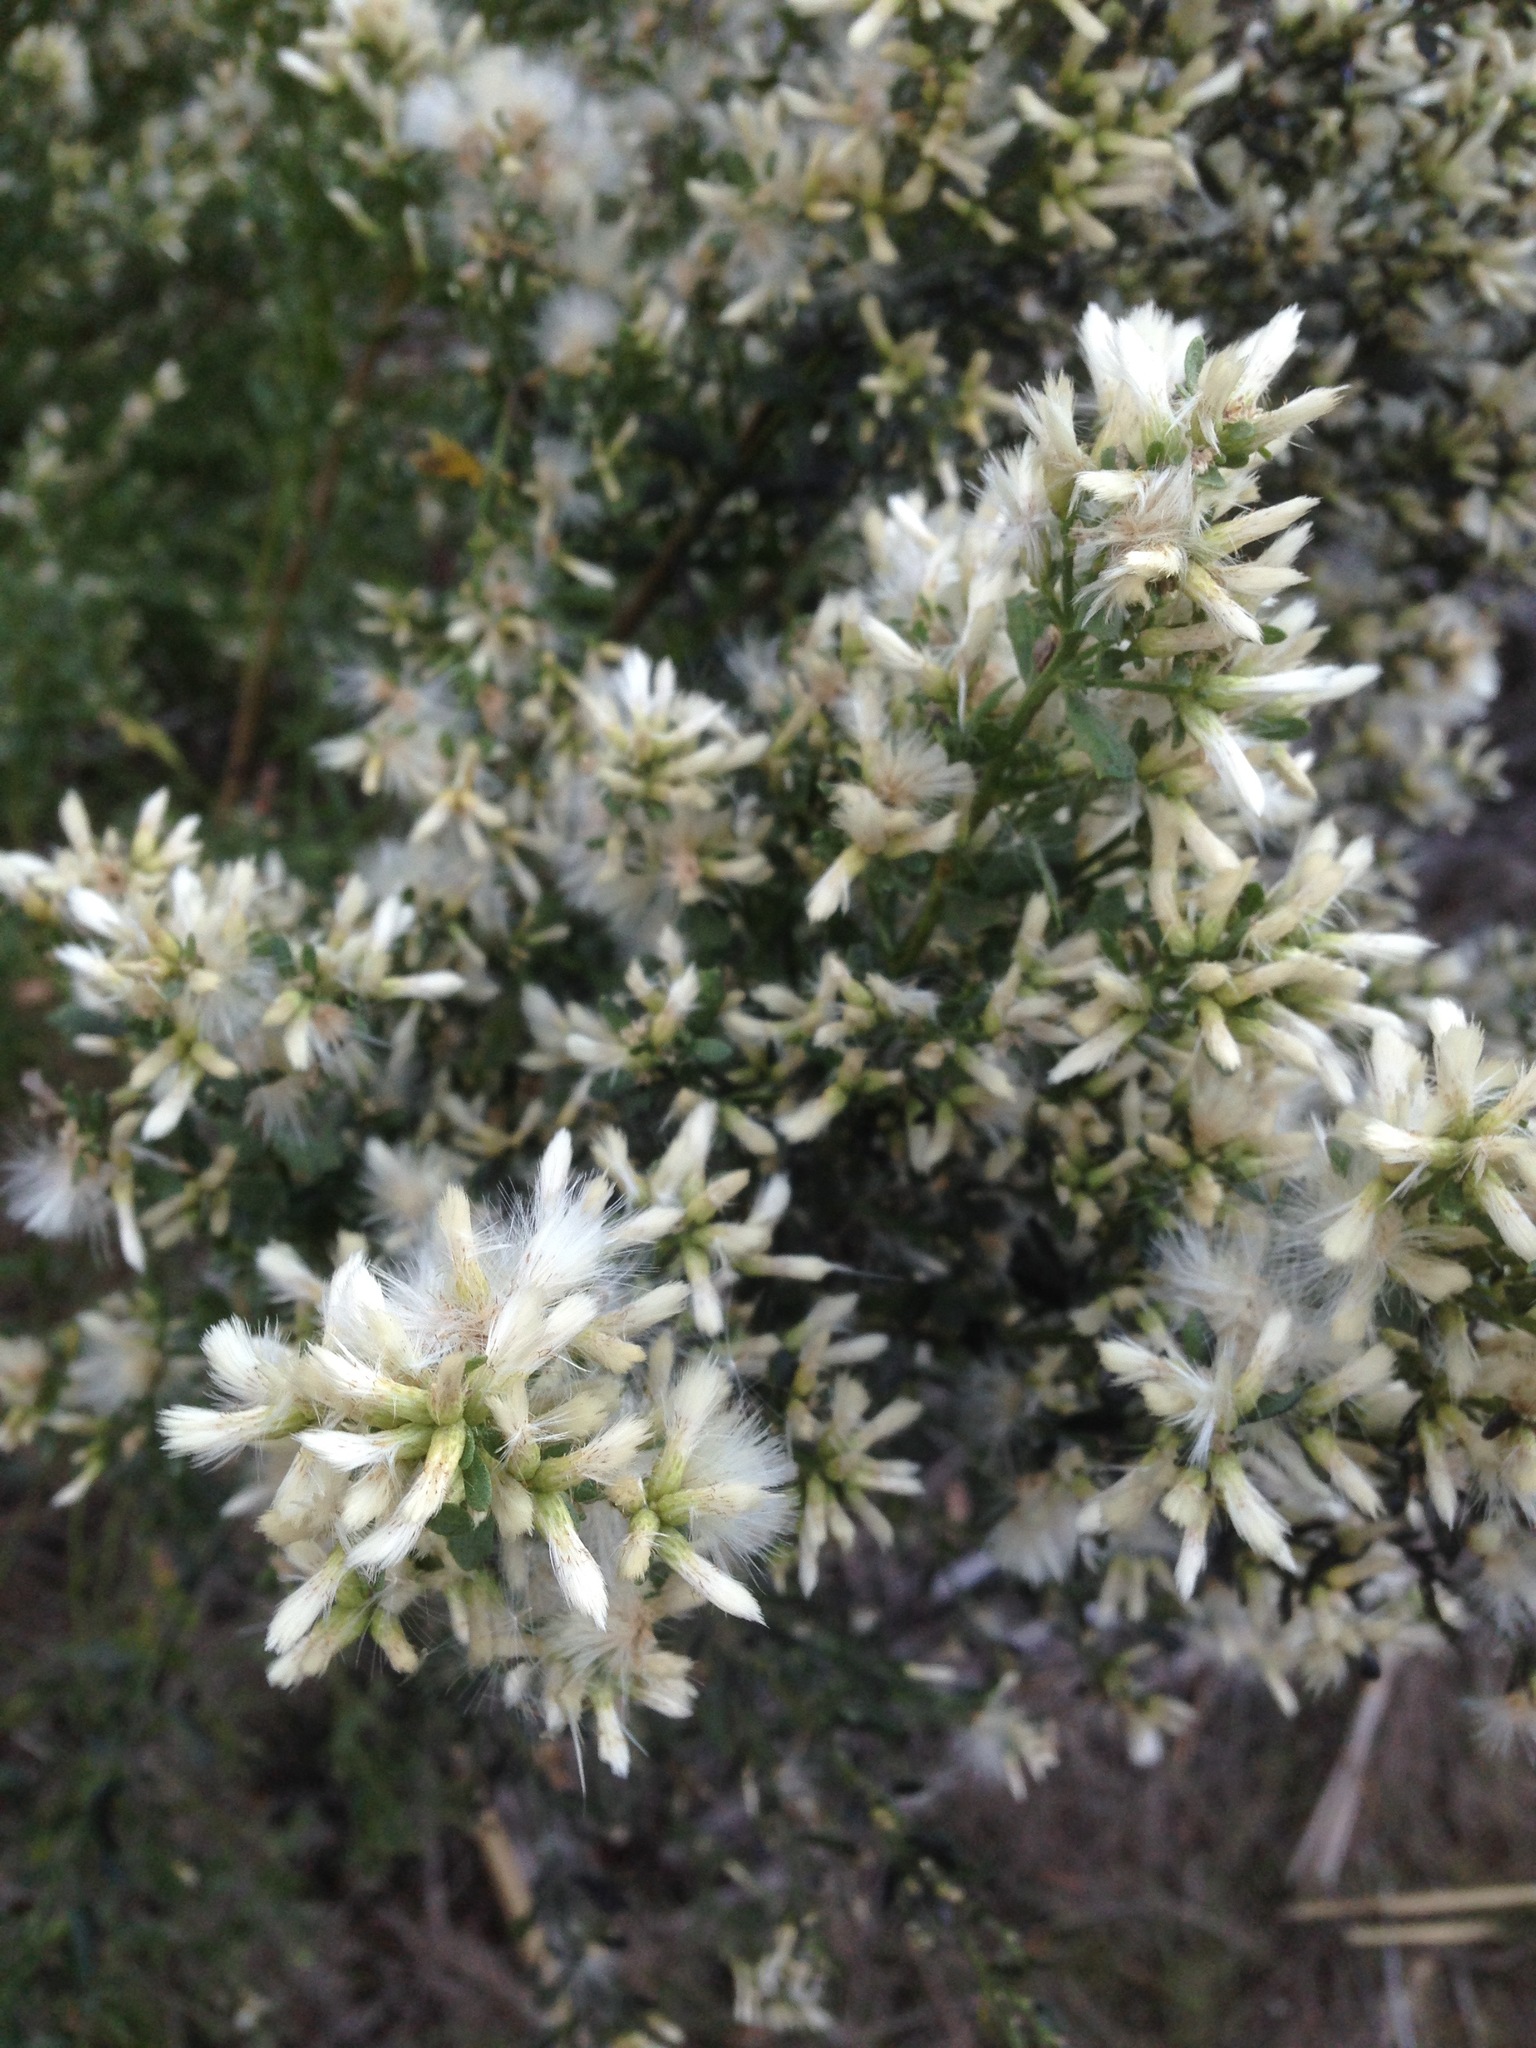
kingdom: Plantae
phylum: Tracheophyta
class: Magnoliopsida
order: Asterales
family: Asteraceae
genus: Baccharis
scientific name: Baccharis pilularis
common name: Coyotebrush
